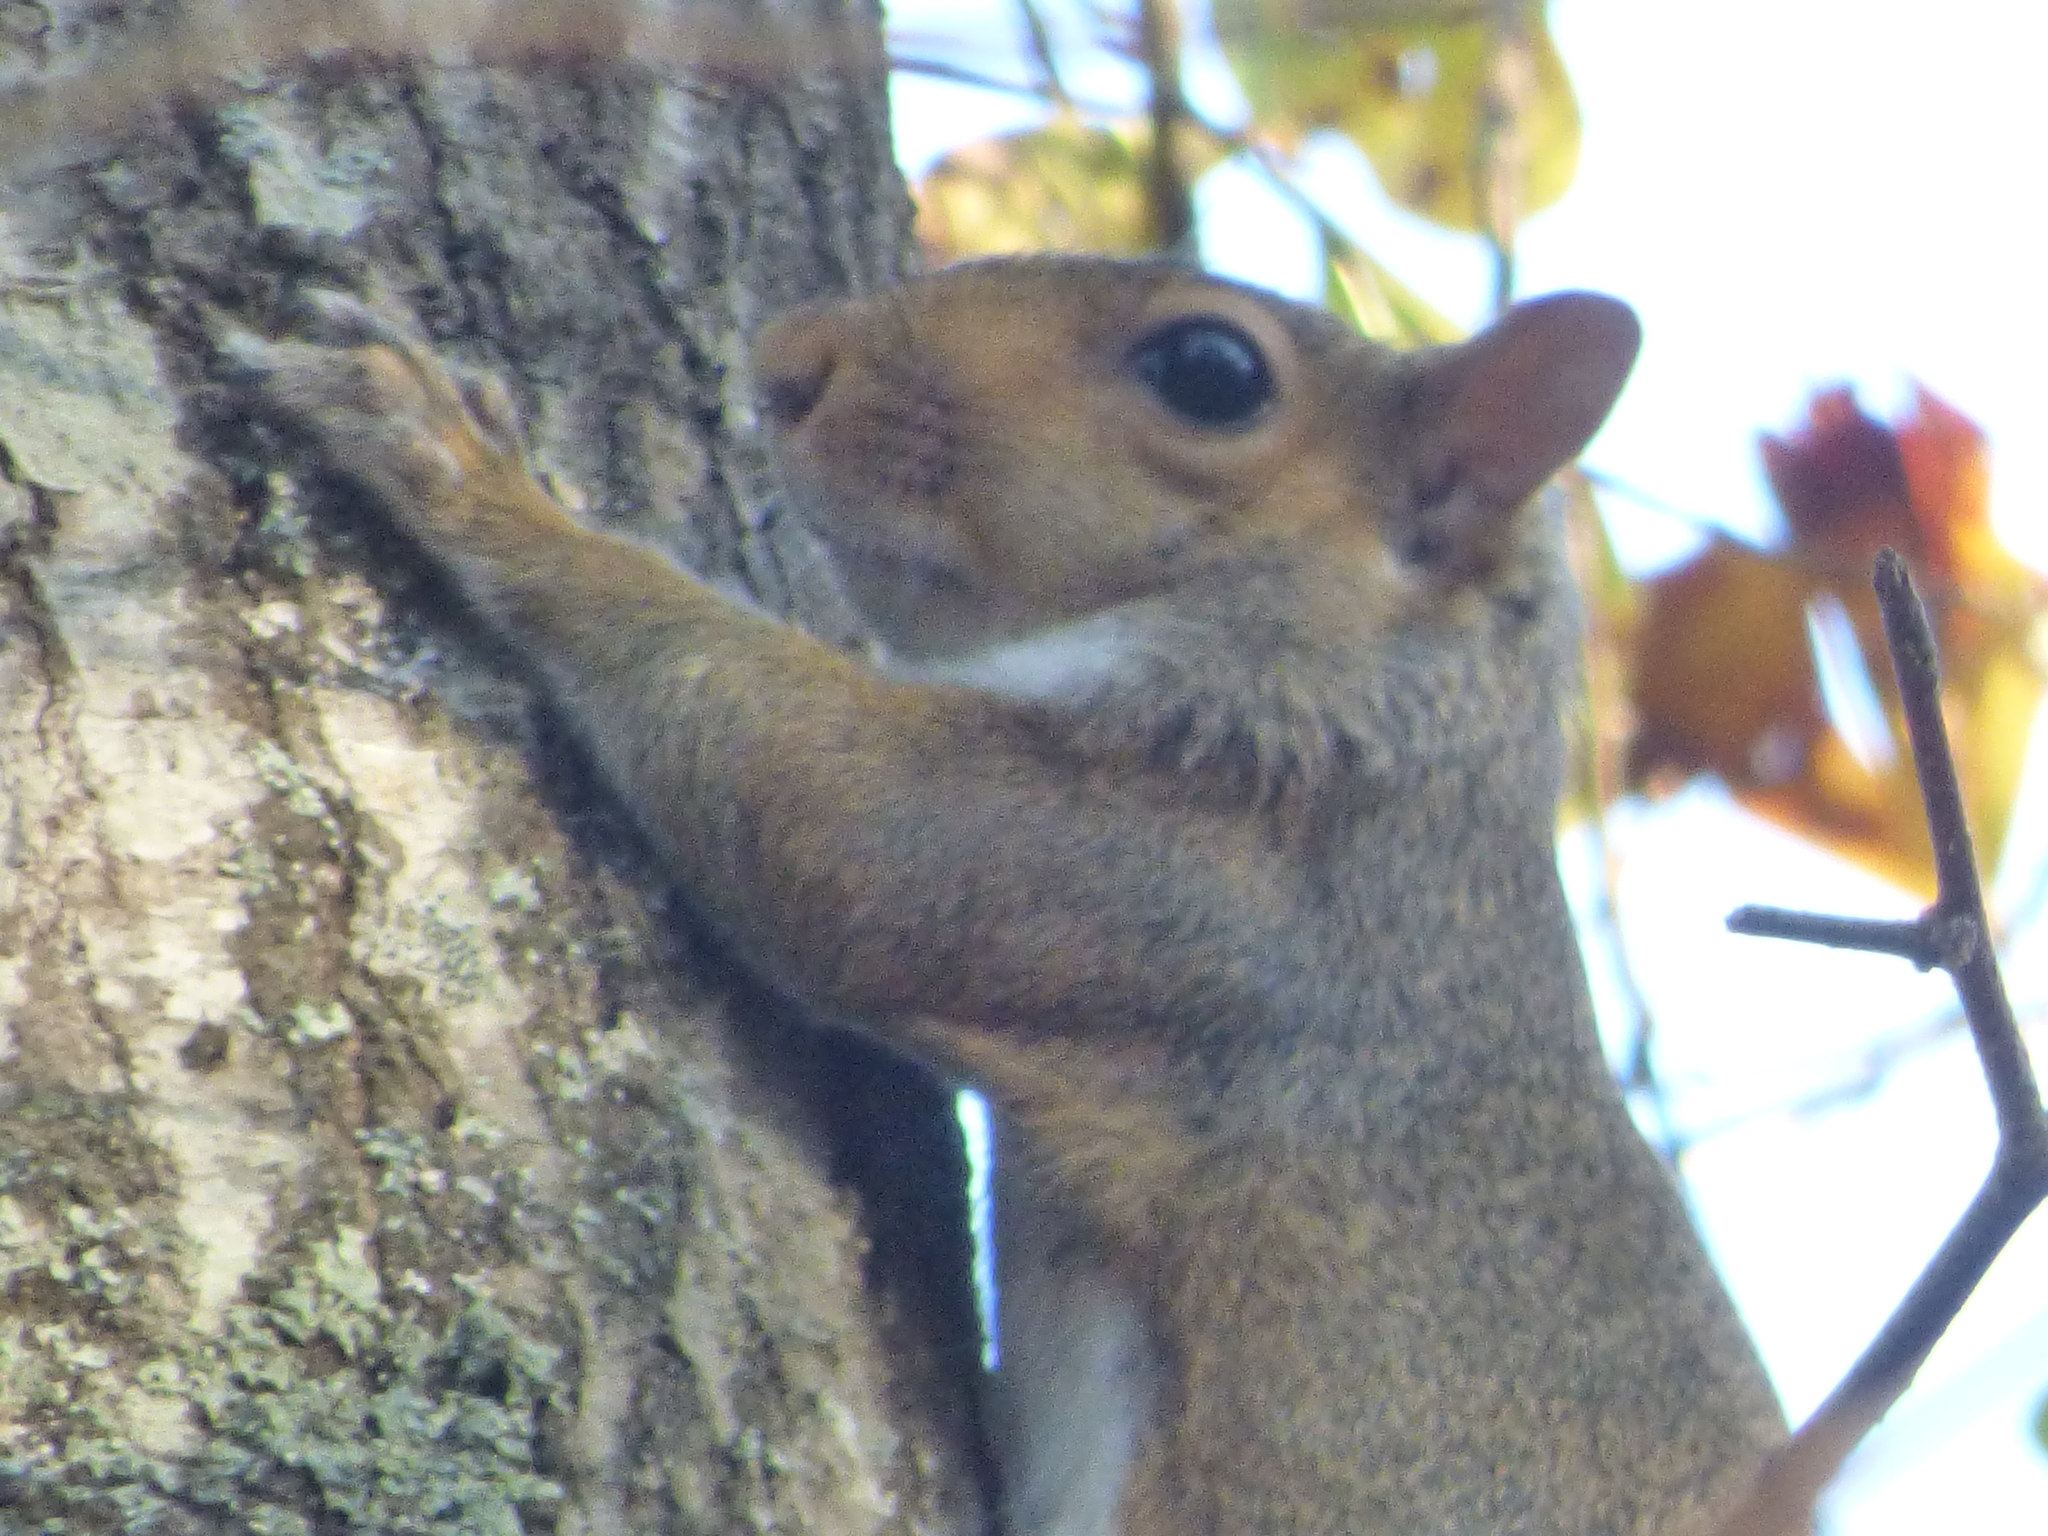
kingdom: Animalia
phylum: Chordata
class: Mammalia
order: Rodentia
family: Sciuridae
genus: Sciurus
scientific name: Sciurus carolinensis
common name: Eastern gray squirrel
